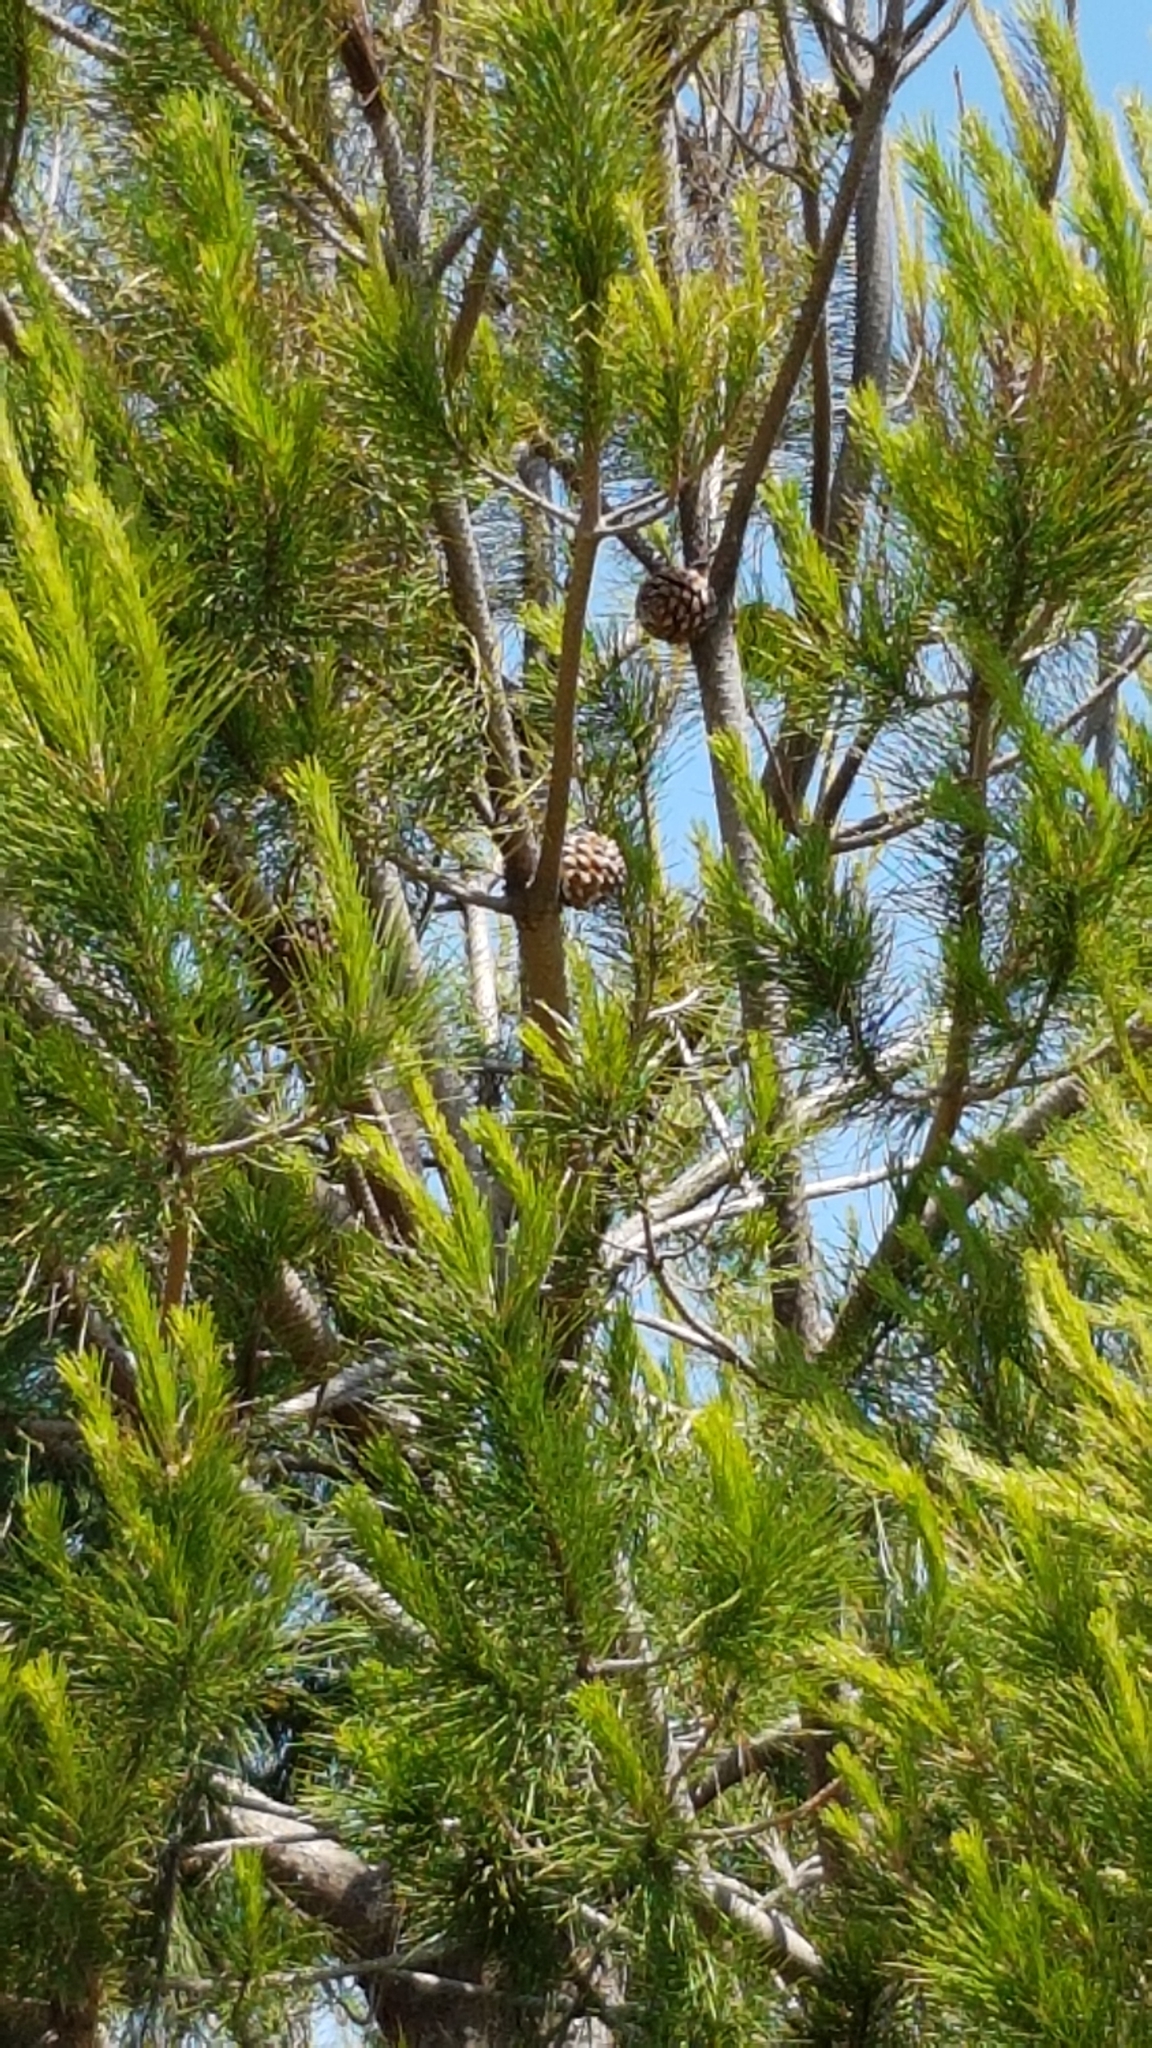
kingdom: Plantae
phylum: Tracheophyta
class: Pinopsida
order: Pinales
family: Pinaceae
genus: Pinus
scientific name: Pinus pinea
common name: Italian stone pine
